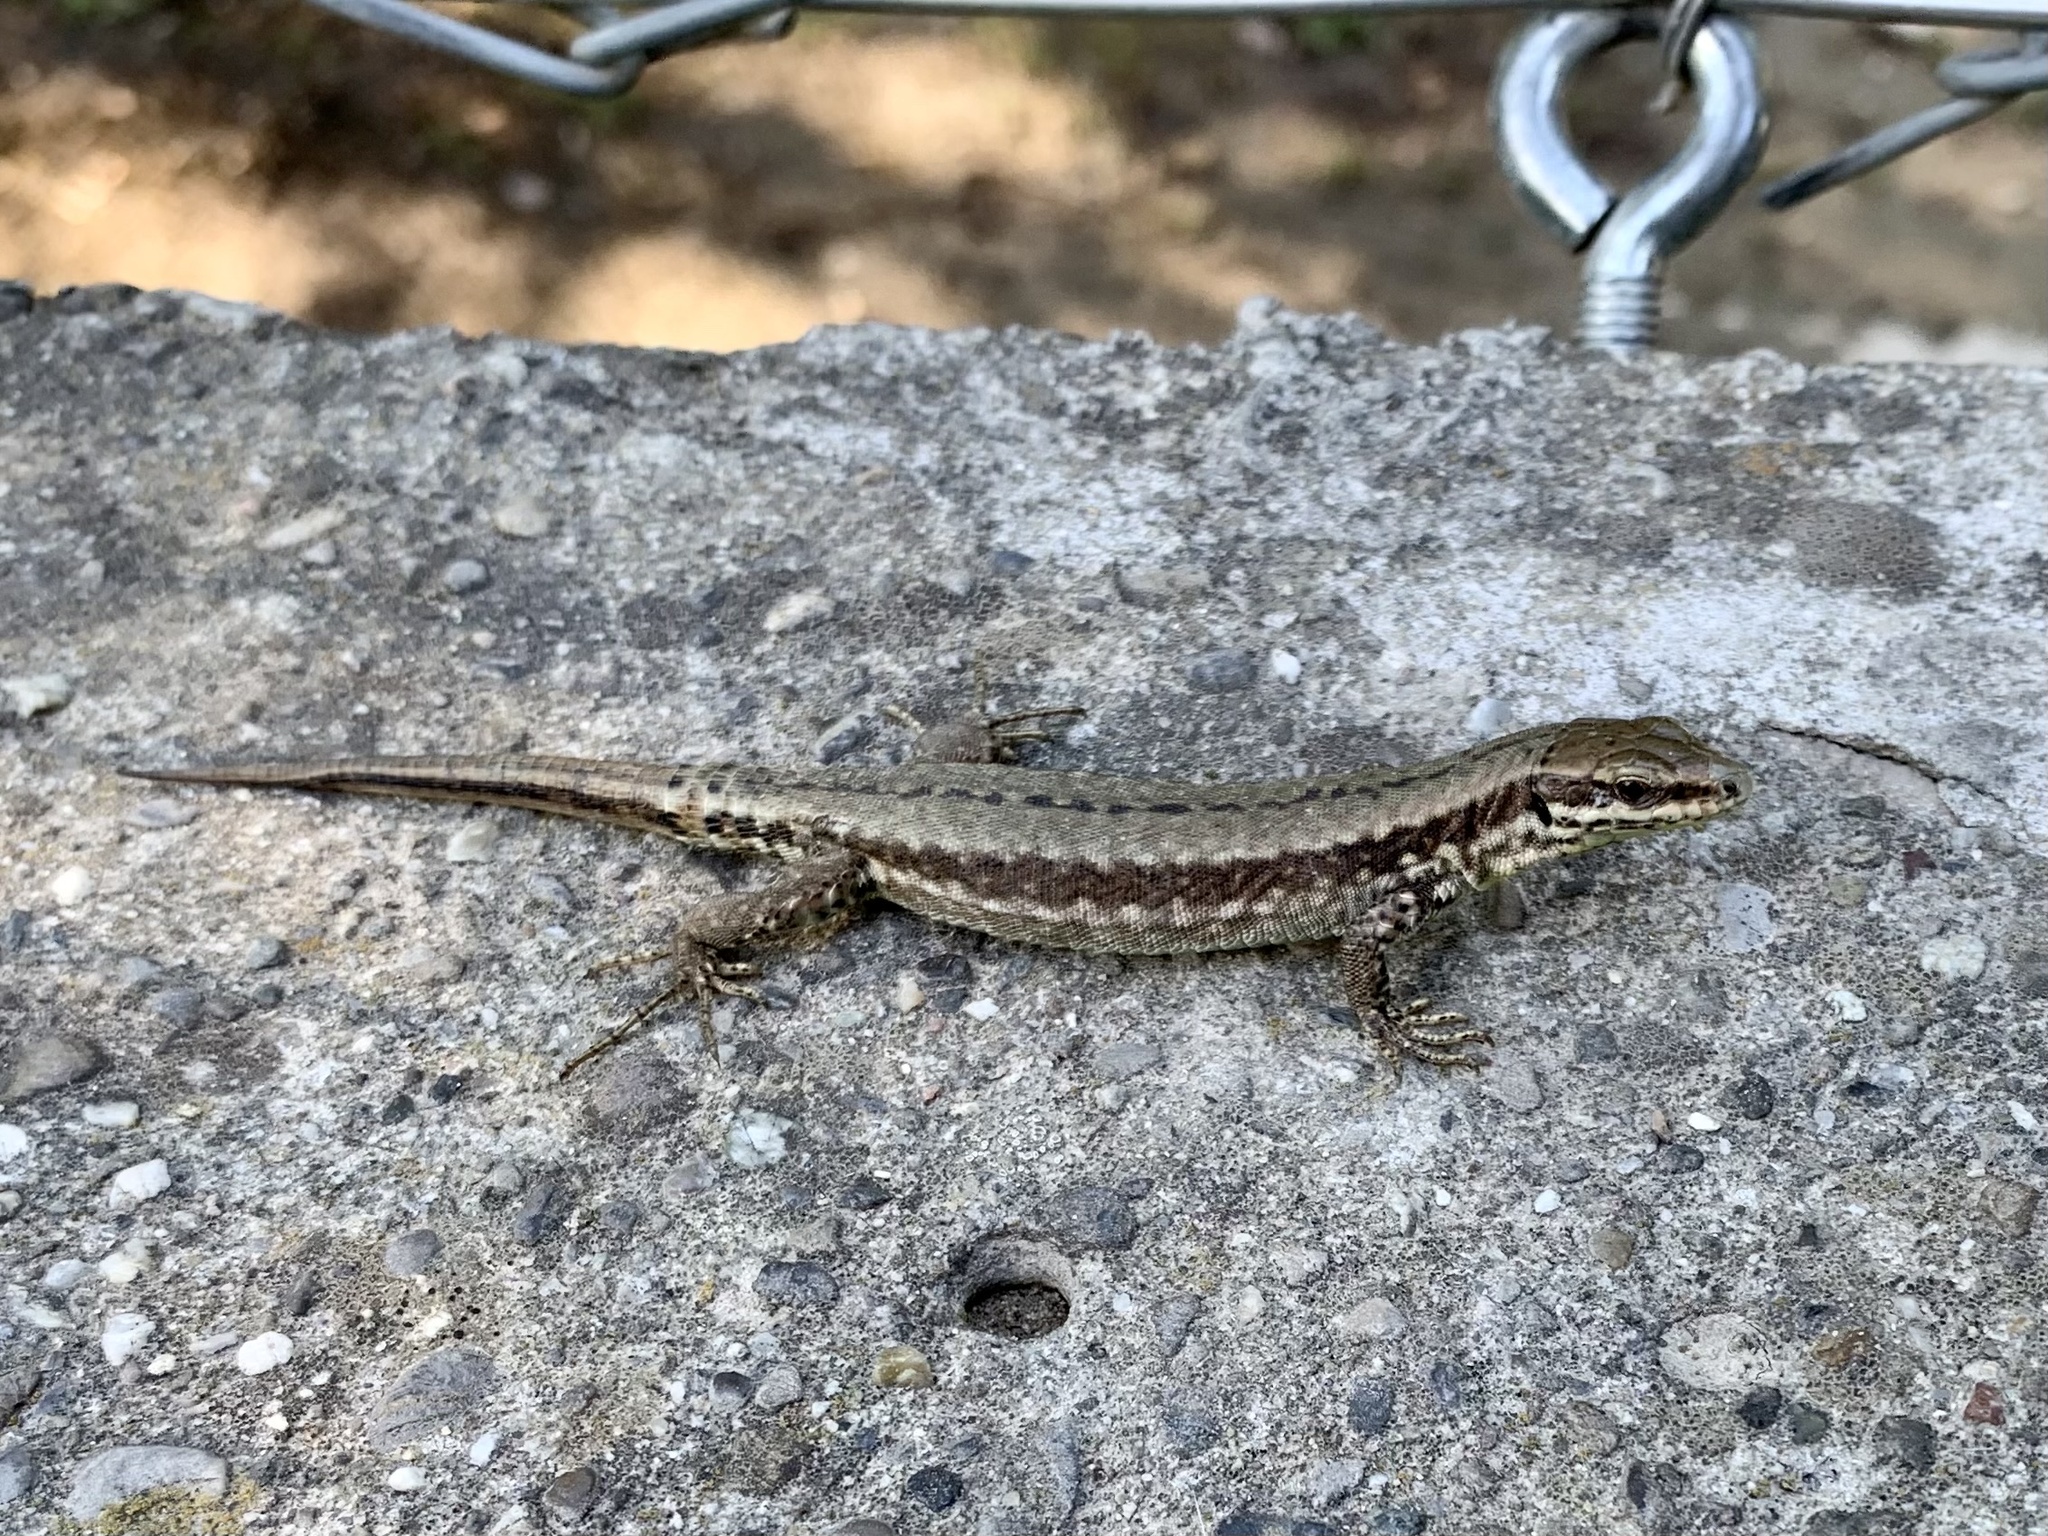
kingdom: Animalia
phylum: Chordata
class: Squamata
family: Lacertidae
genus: Podarcis
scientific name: Podarcis muralis
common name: Common wall lizard
